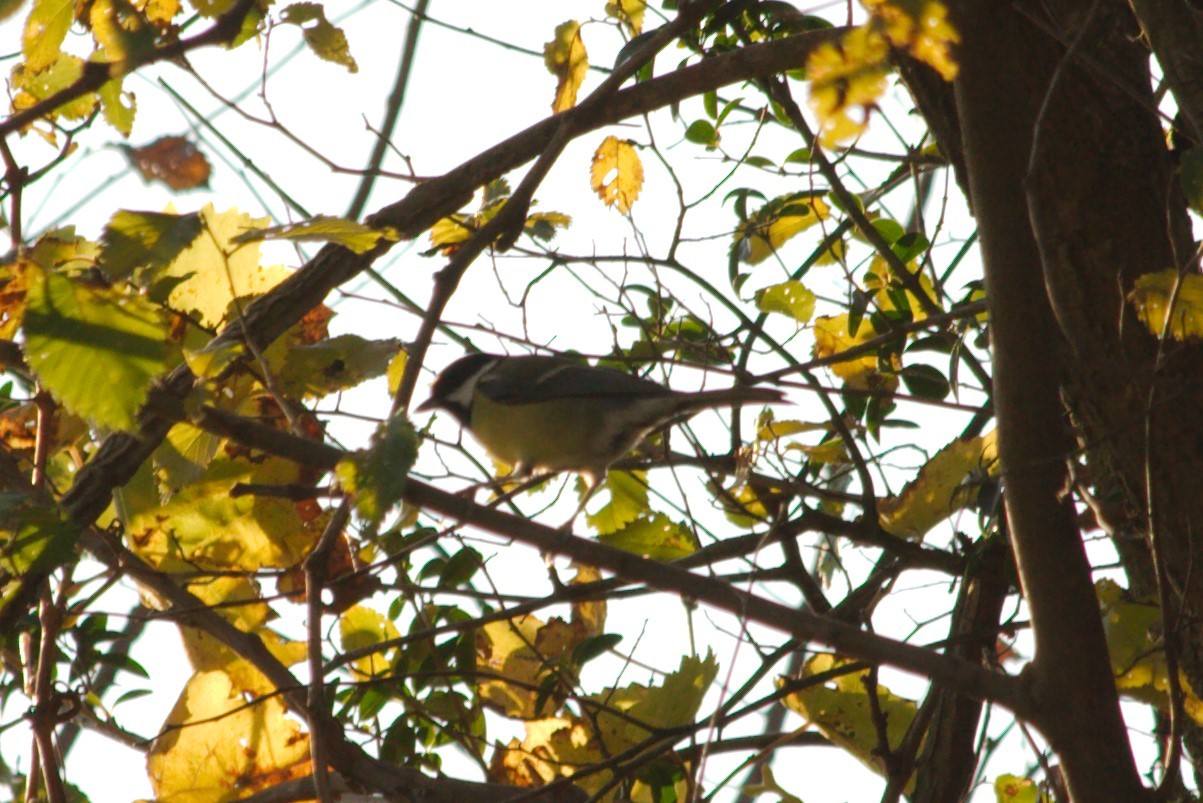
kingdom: Animalia
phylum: Chordata
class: Aves
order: Passeriformes
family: Paridae
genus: Parus
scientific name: Parus major
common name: Great tit
